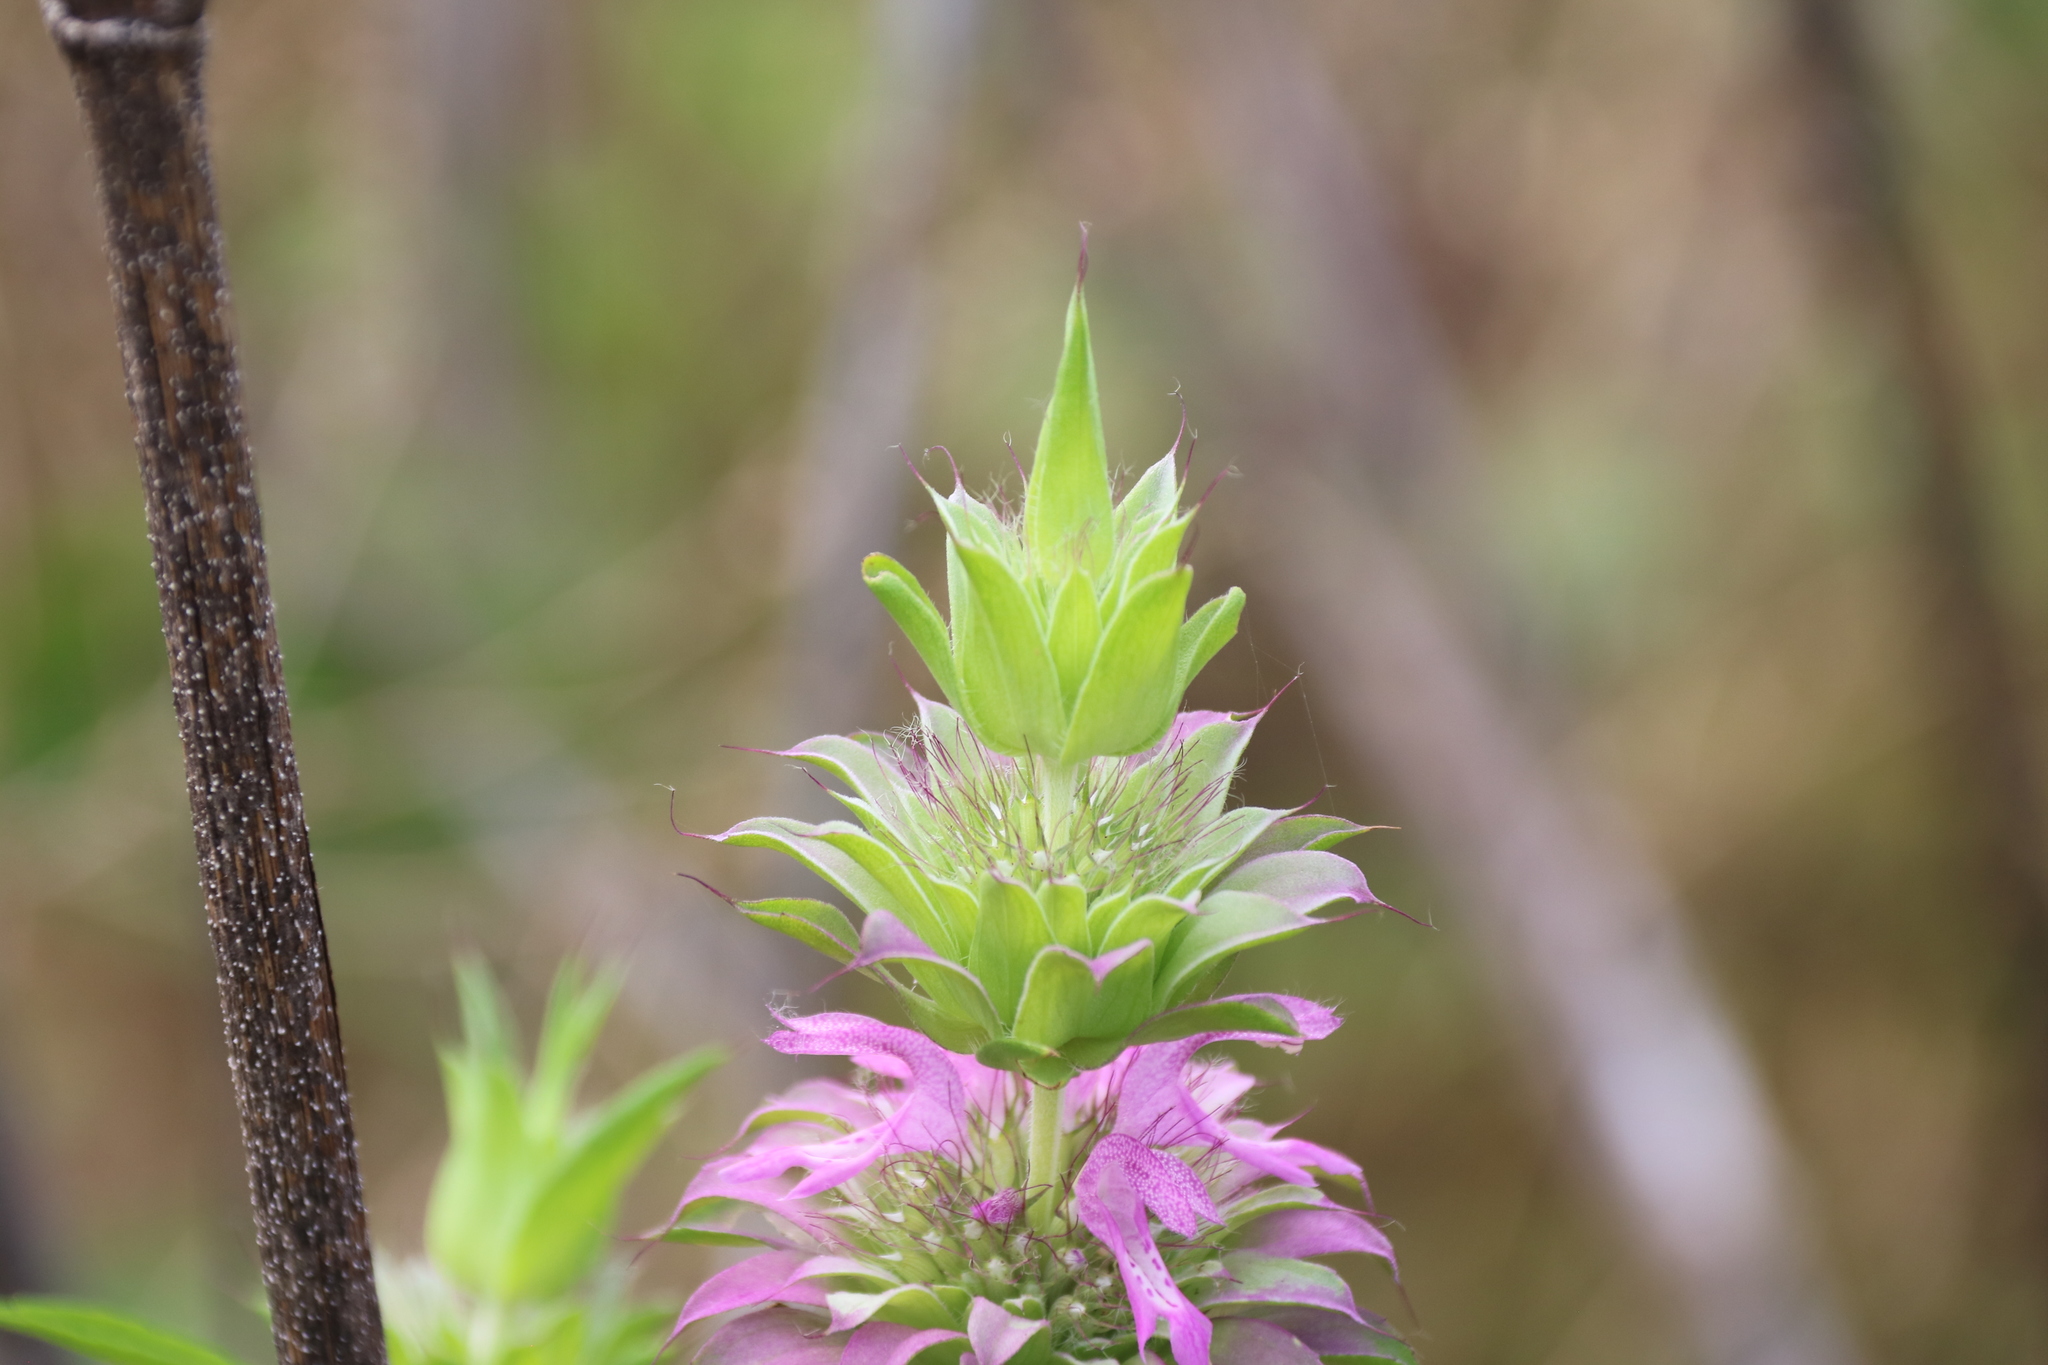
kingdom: Plantae
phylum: Tracheophyta
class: Magnoliopsida
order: Lamiales
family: Lamiaceae
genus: Monarda
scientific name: Monarda citriodora
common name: Lemon beebalm
